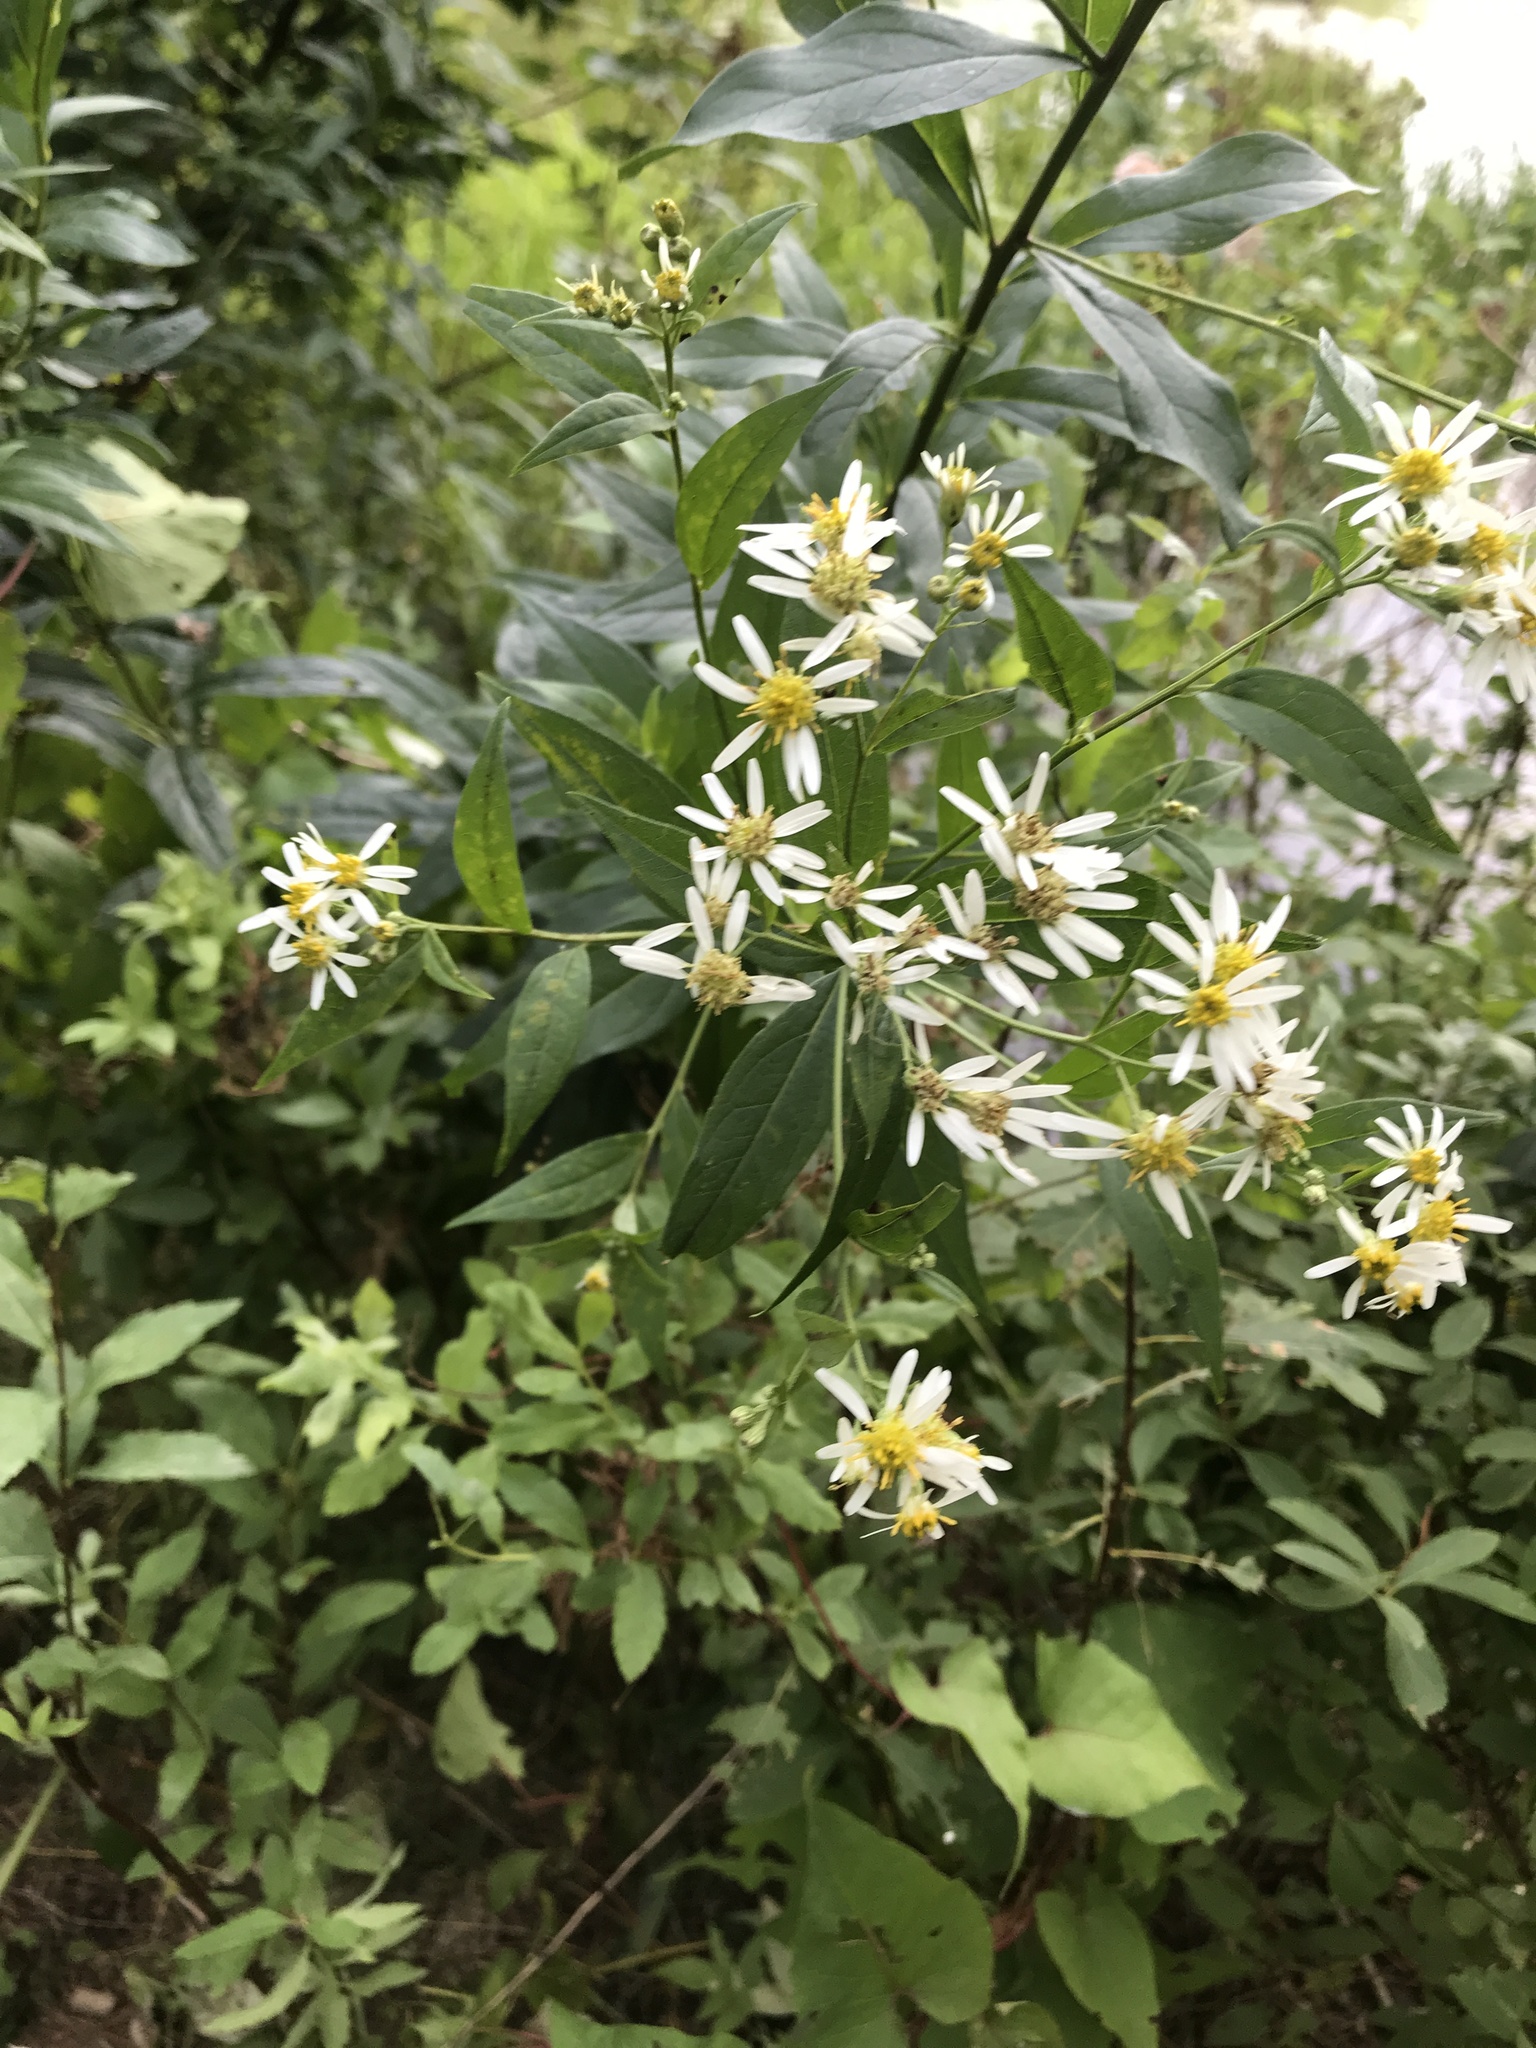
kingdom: Plantae
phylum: Tracheophyta
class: Magnoliopsida
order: Asterales
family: Asteraceae
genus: Doellingeria
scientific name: Doellingeria umbellata
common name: Flat-top white aster
